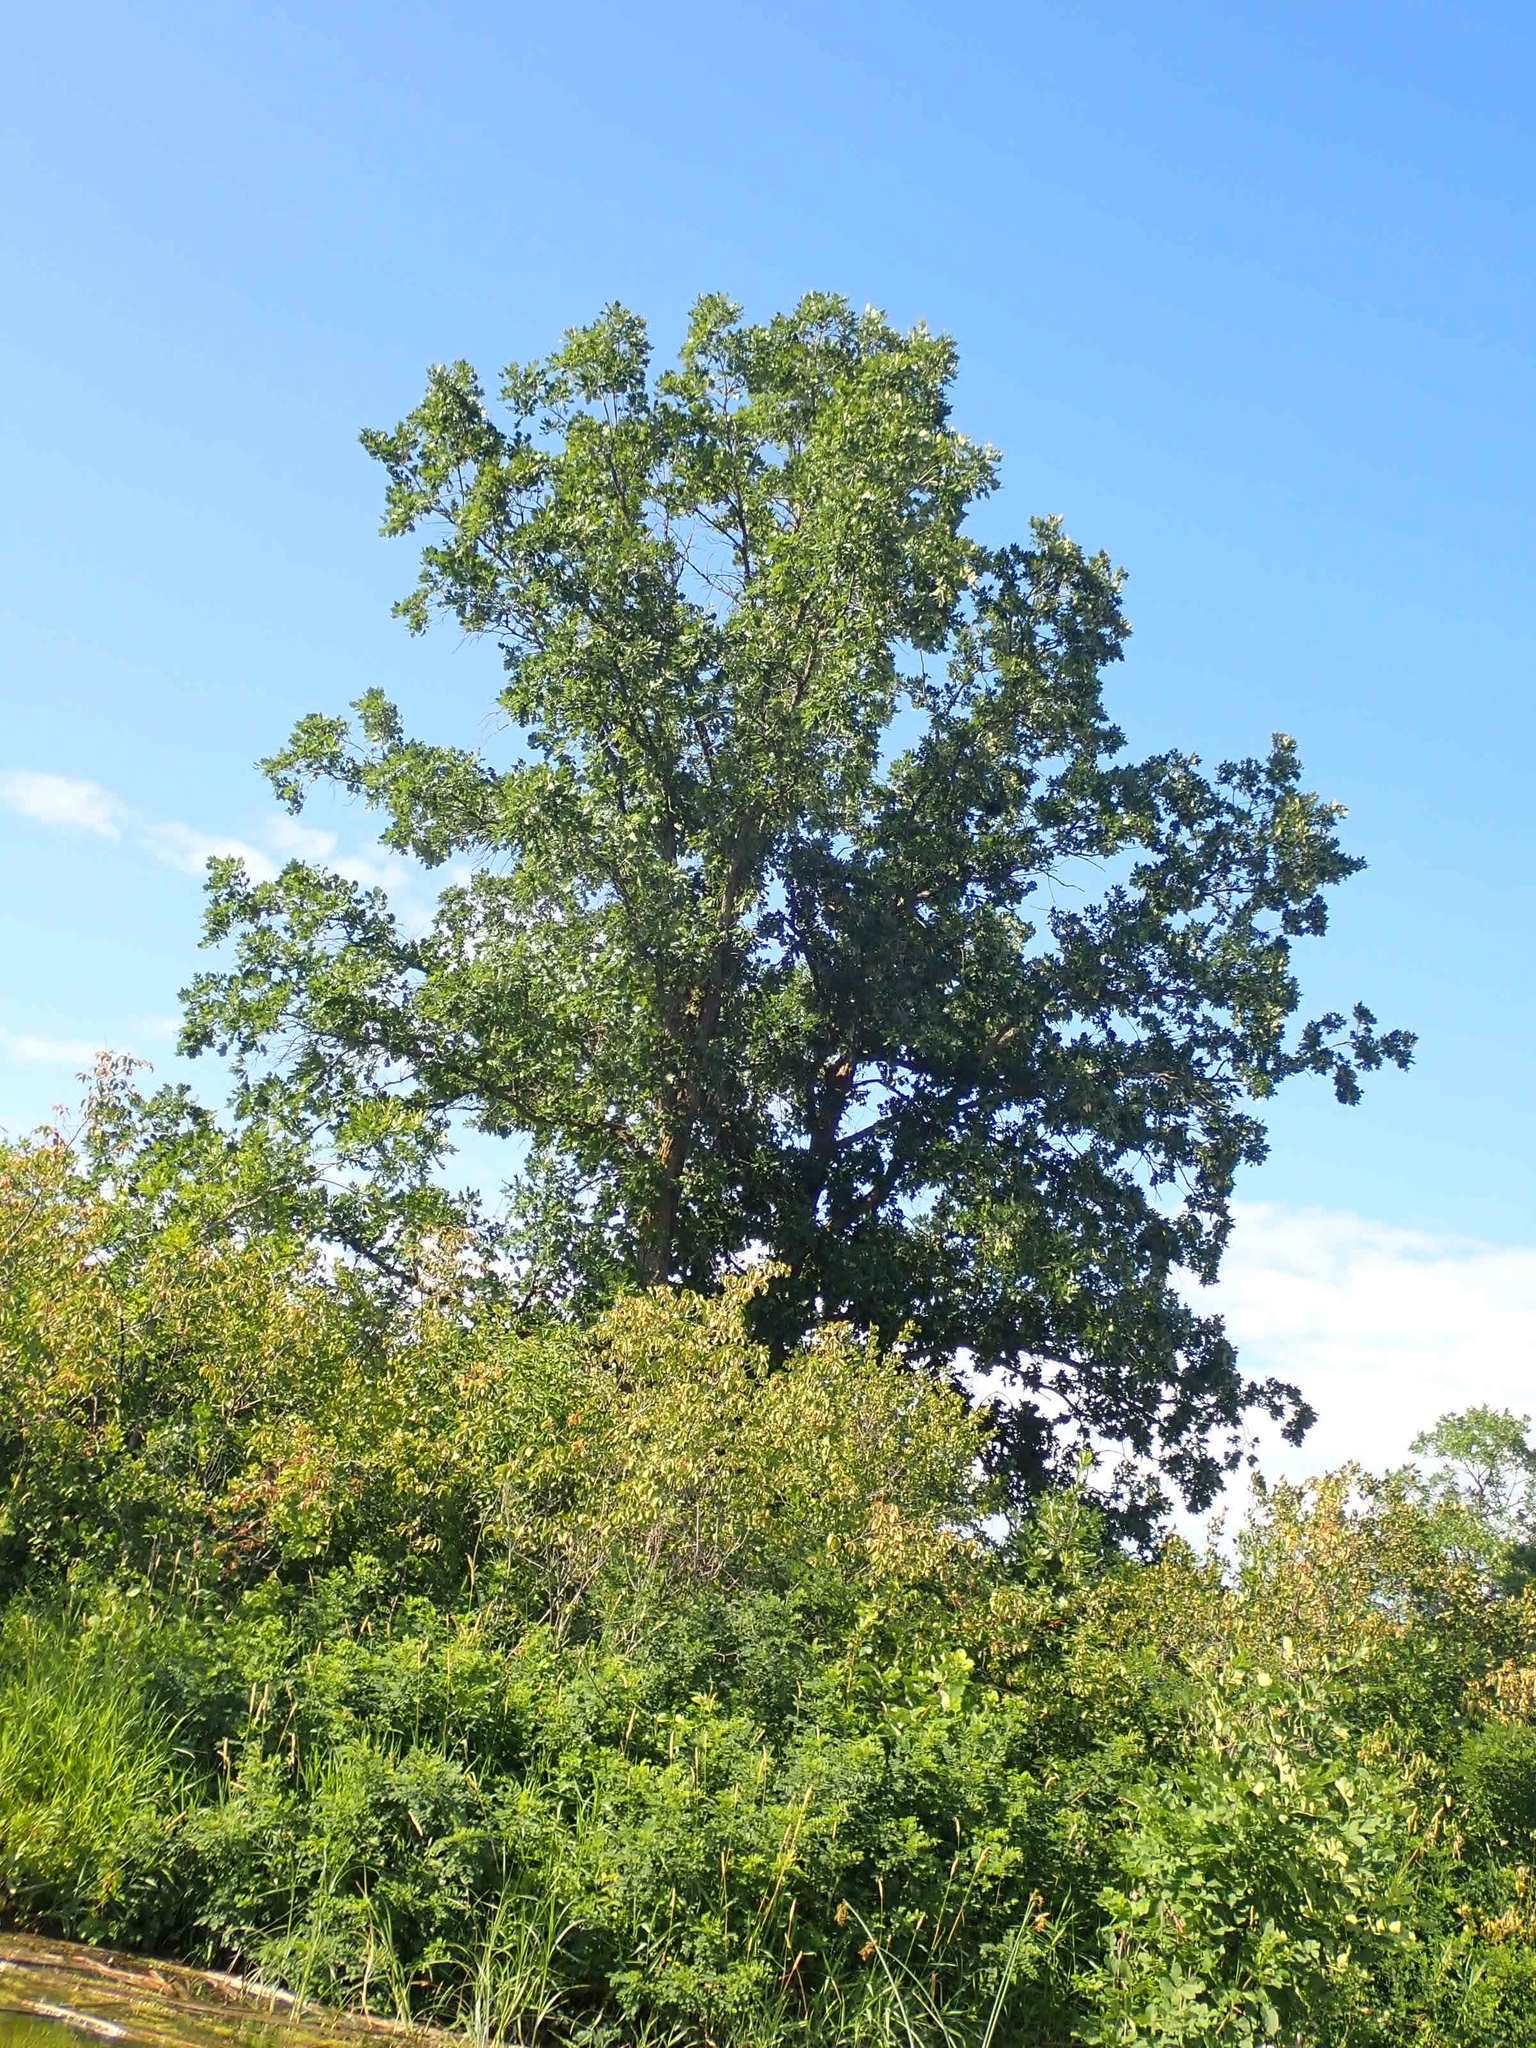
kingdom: Plantae
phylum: Tracheophyta
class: Magnoliopsida
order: Fagales
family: Fagaceae
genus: Quercus
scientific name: Quercus macrocarpa
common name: Bur oak
